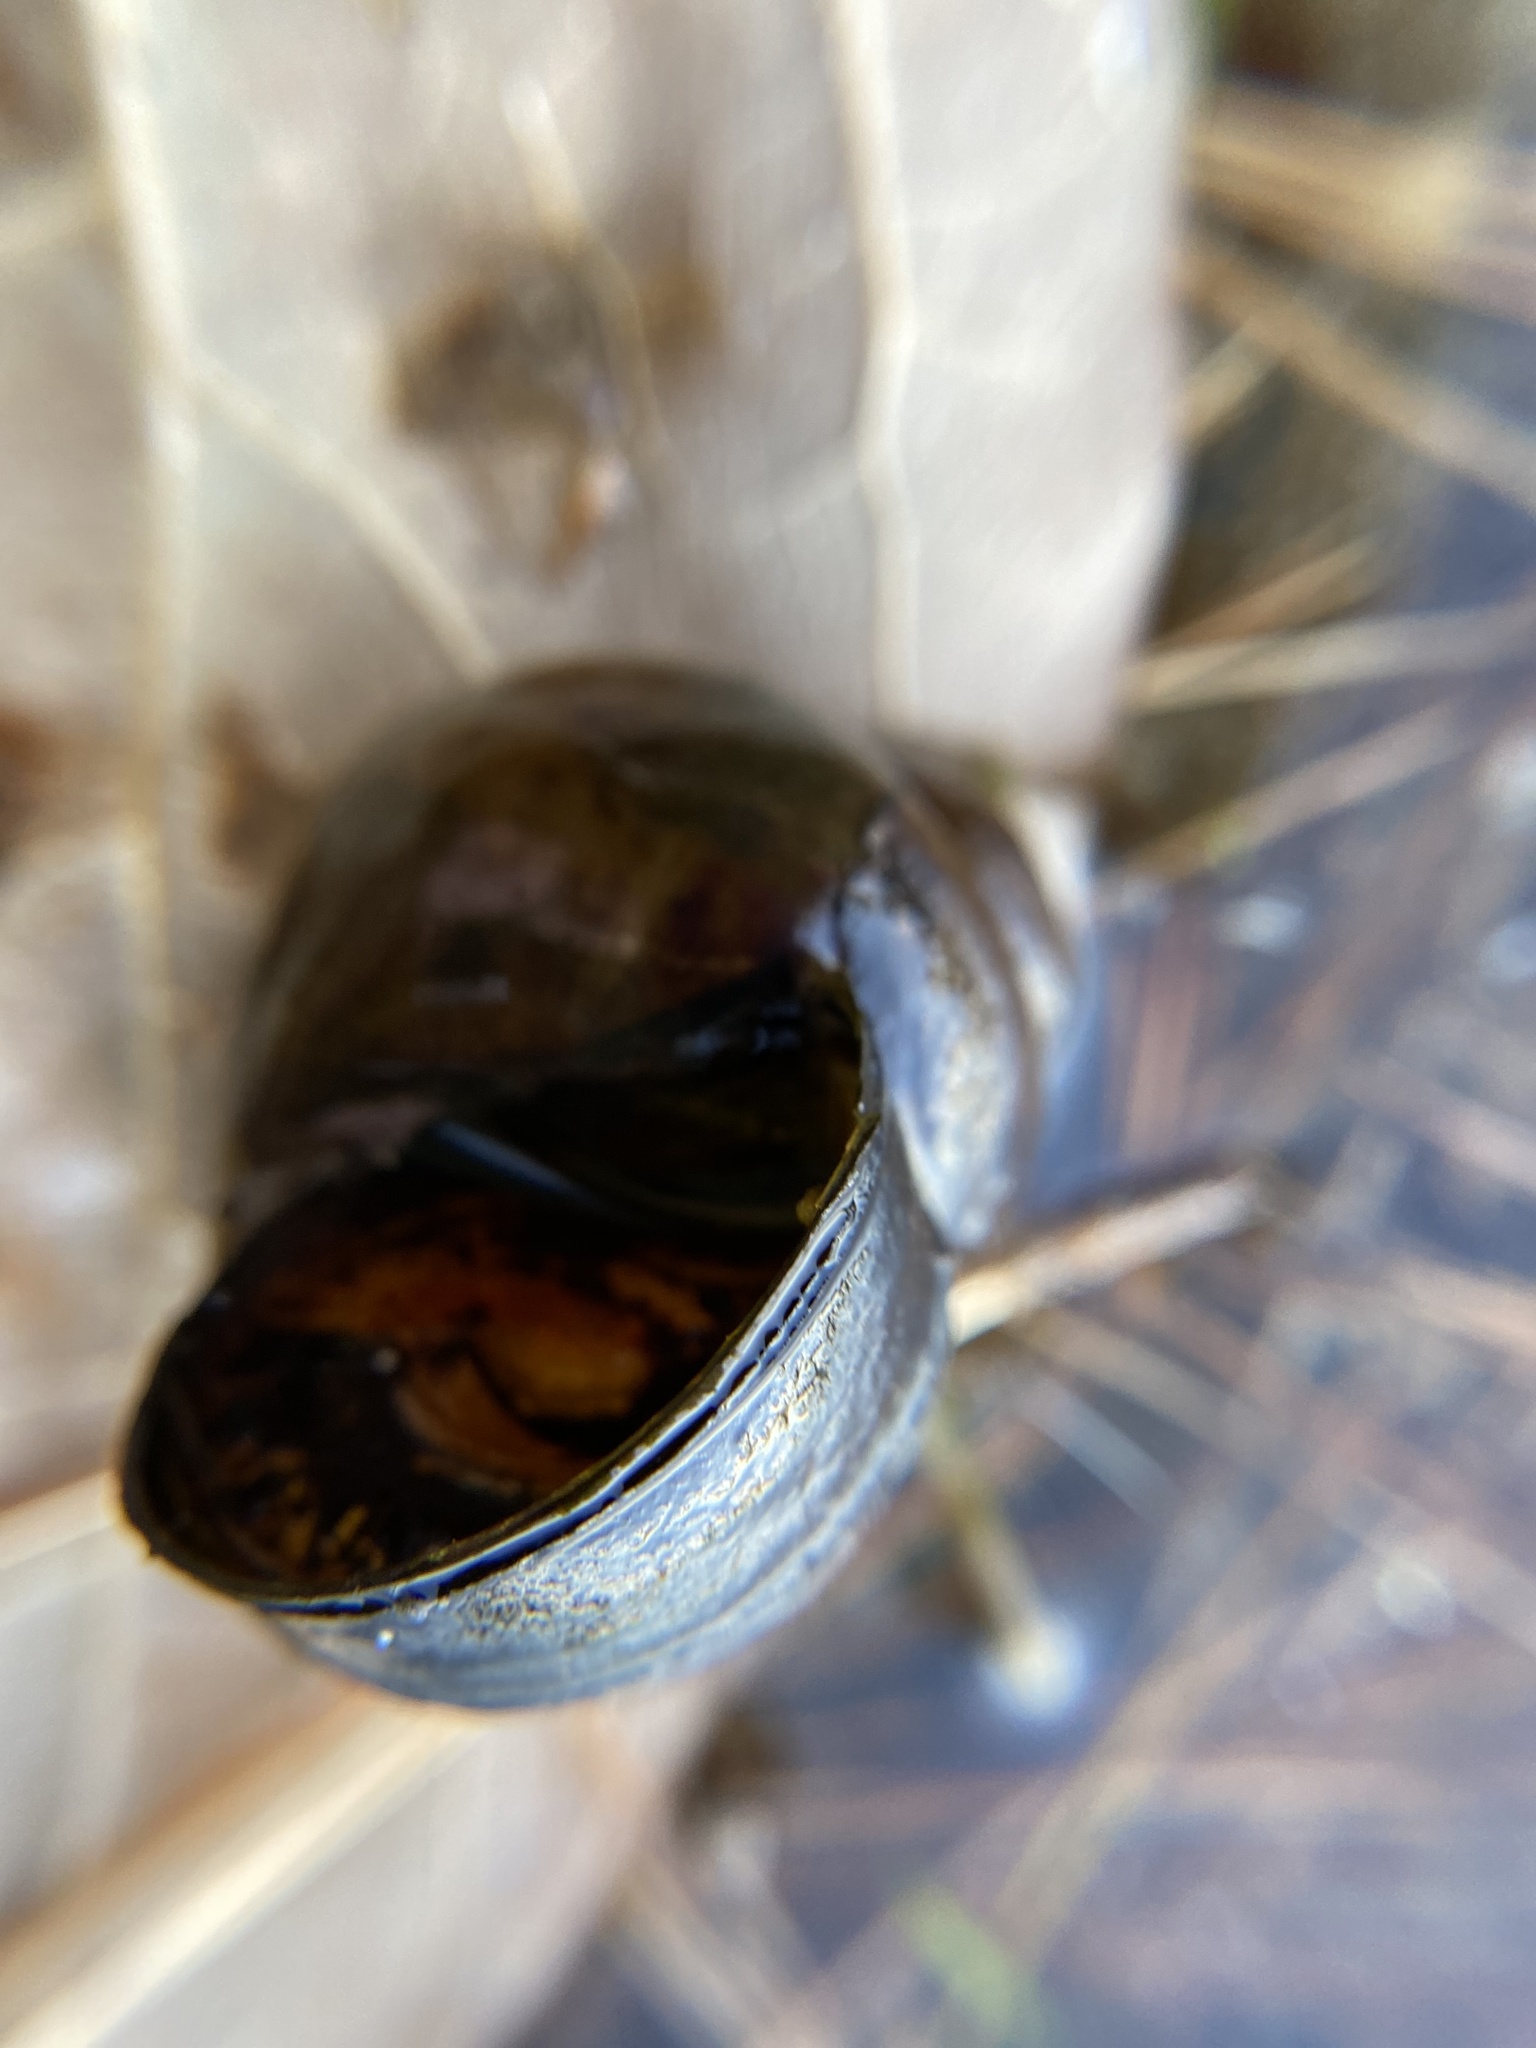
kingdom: Animalia
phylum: Mollusca
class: Gastropoda
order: Architaenioglossa
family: Viviparidae
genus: Cipangopaludina
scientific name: Cipangopaludina chinensis
